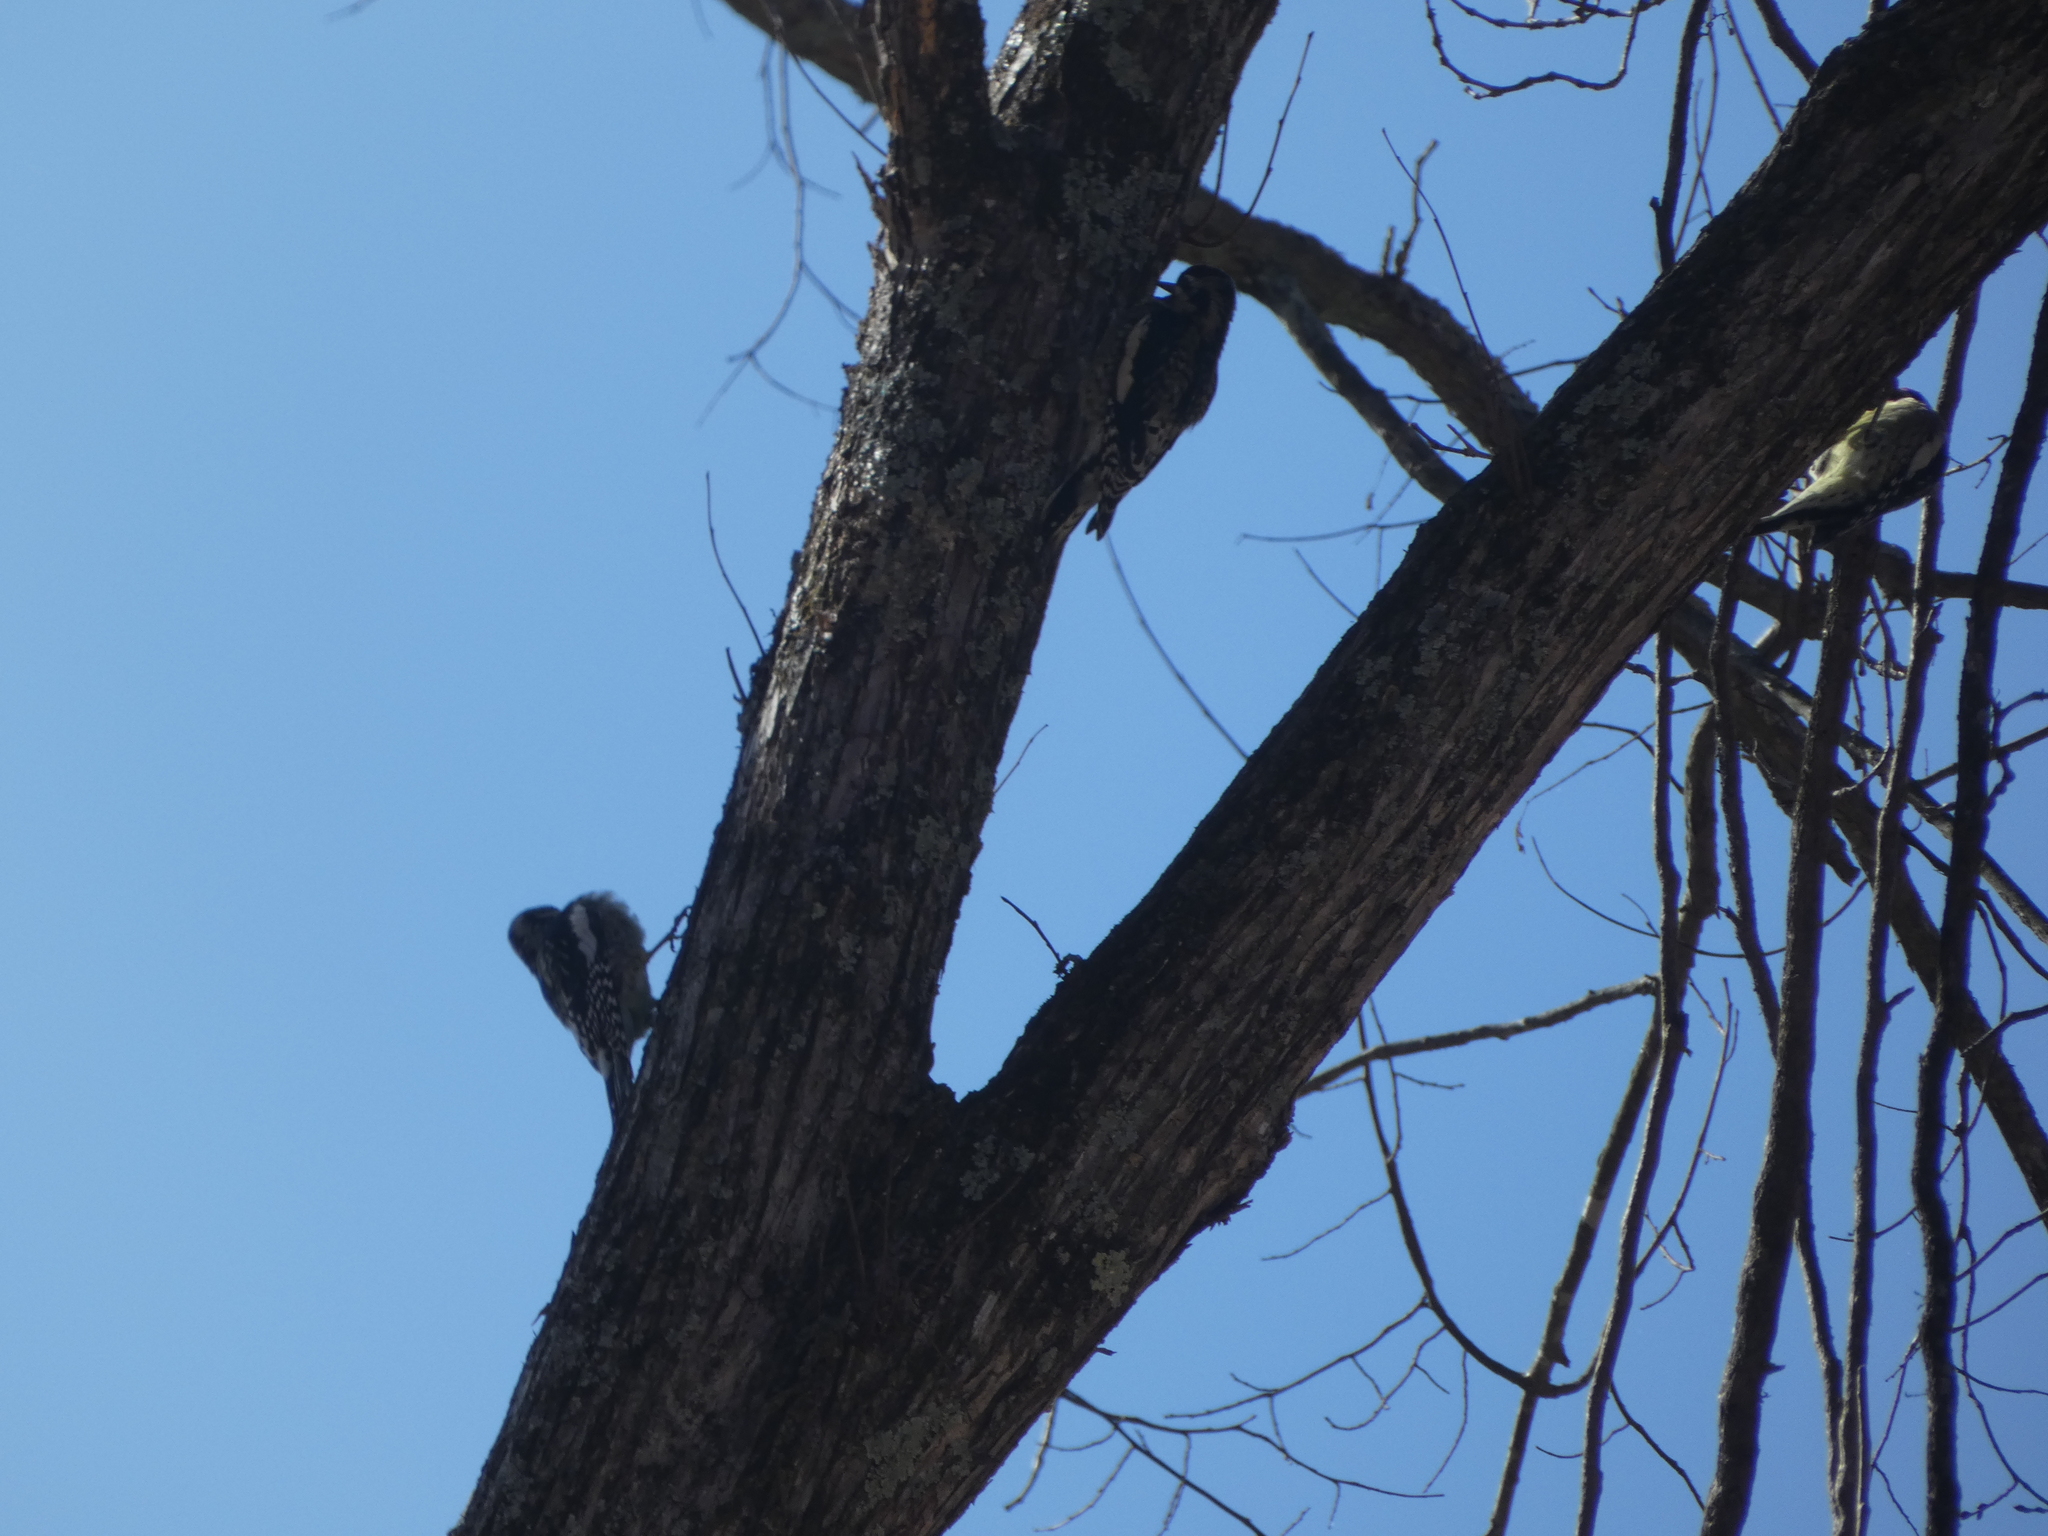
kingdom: Animalia
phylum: Chordata
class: Aves
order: Piciformes
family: Picidae
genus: Sphyrapicus
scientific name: Sphyrapicus varius
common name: Yellow-bellied sapsucker
